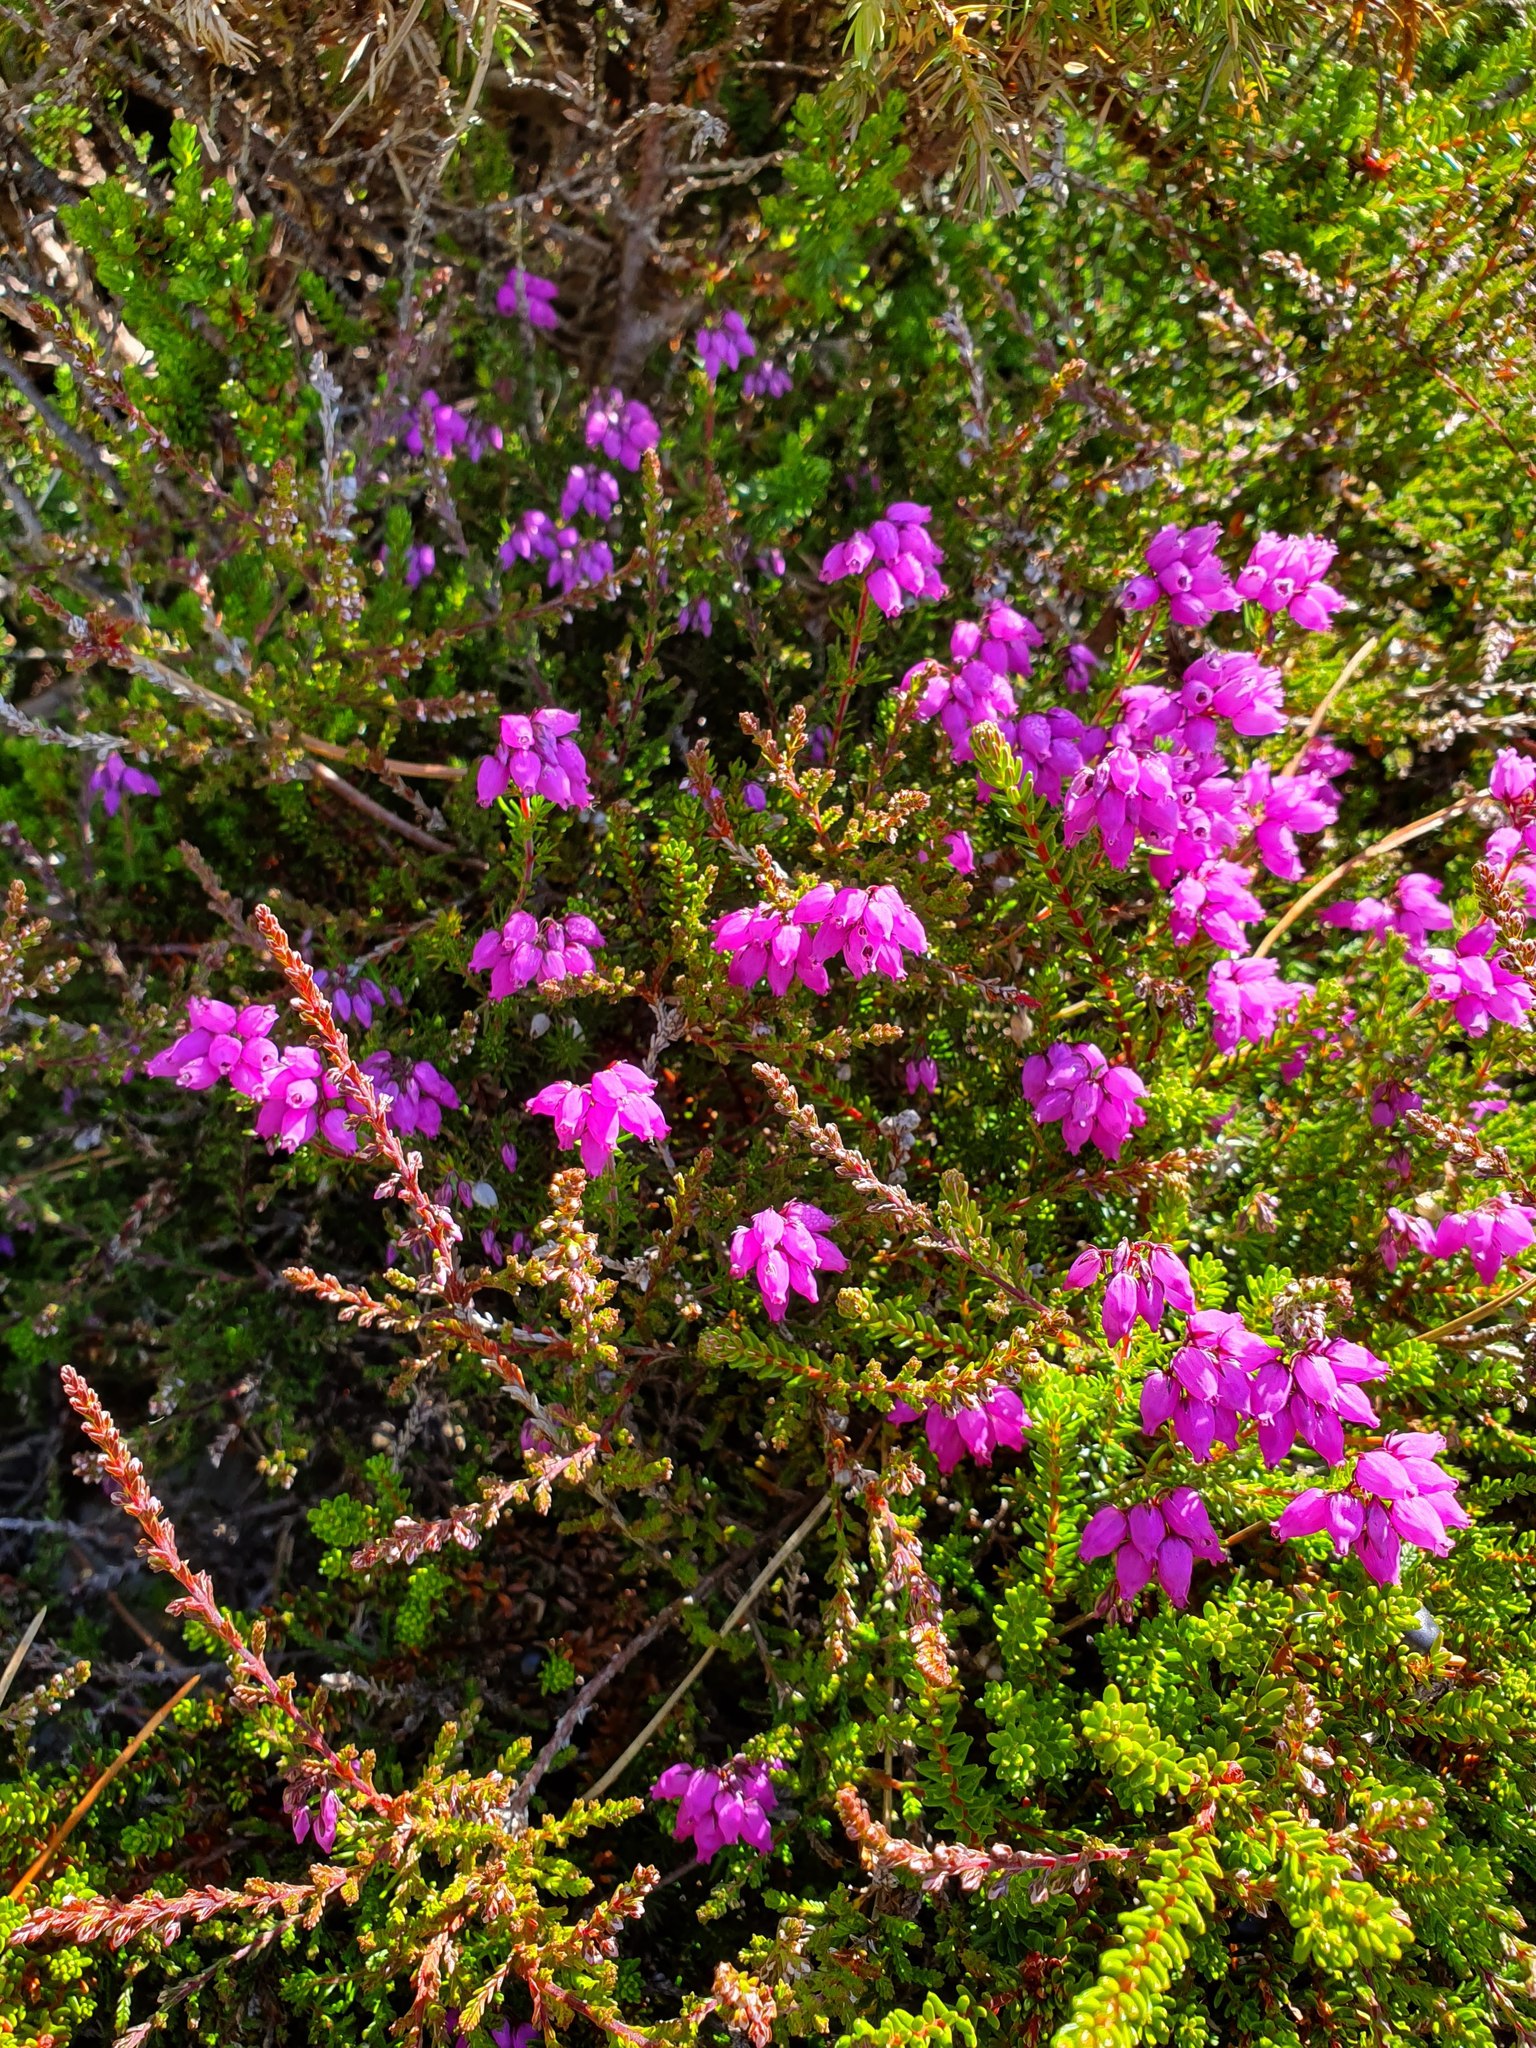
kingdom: Plantae
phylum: Tracheophyta
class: Magnoliopsida
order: Ericales
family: Ericaceae
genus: Erica
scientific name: Erica cinerea
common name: Bell heather
